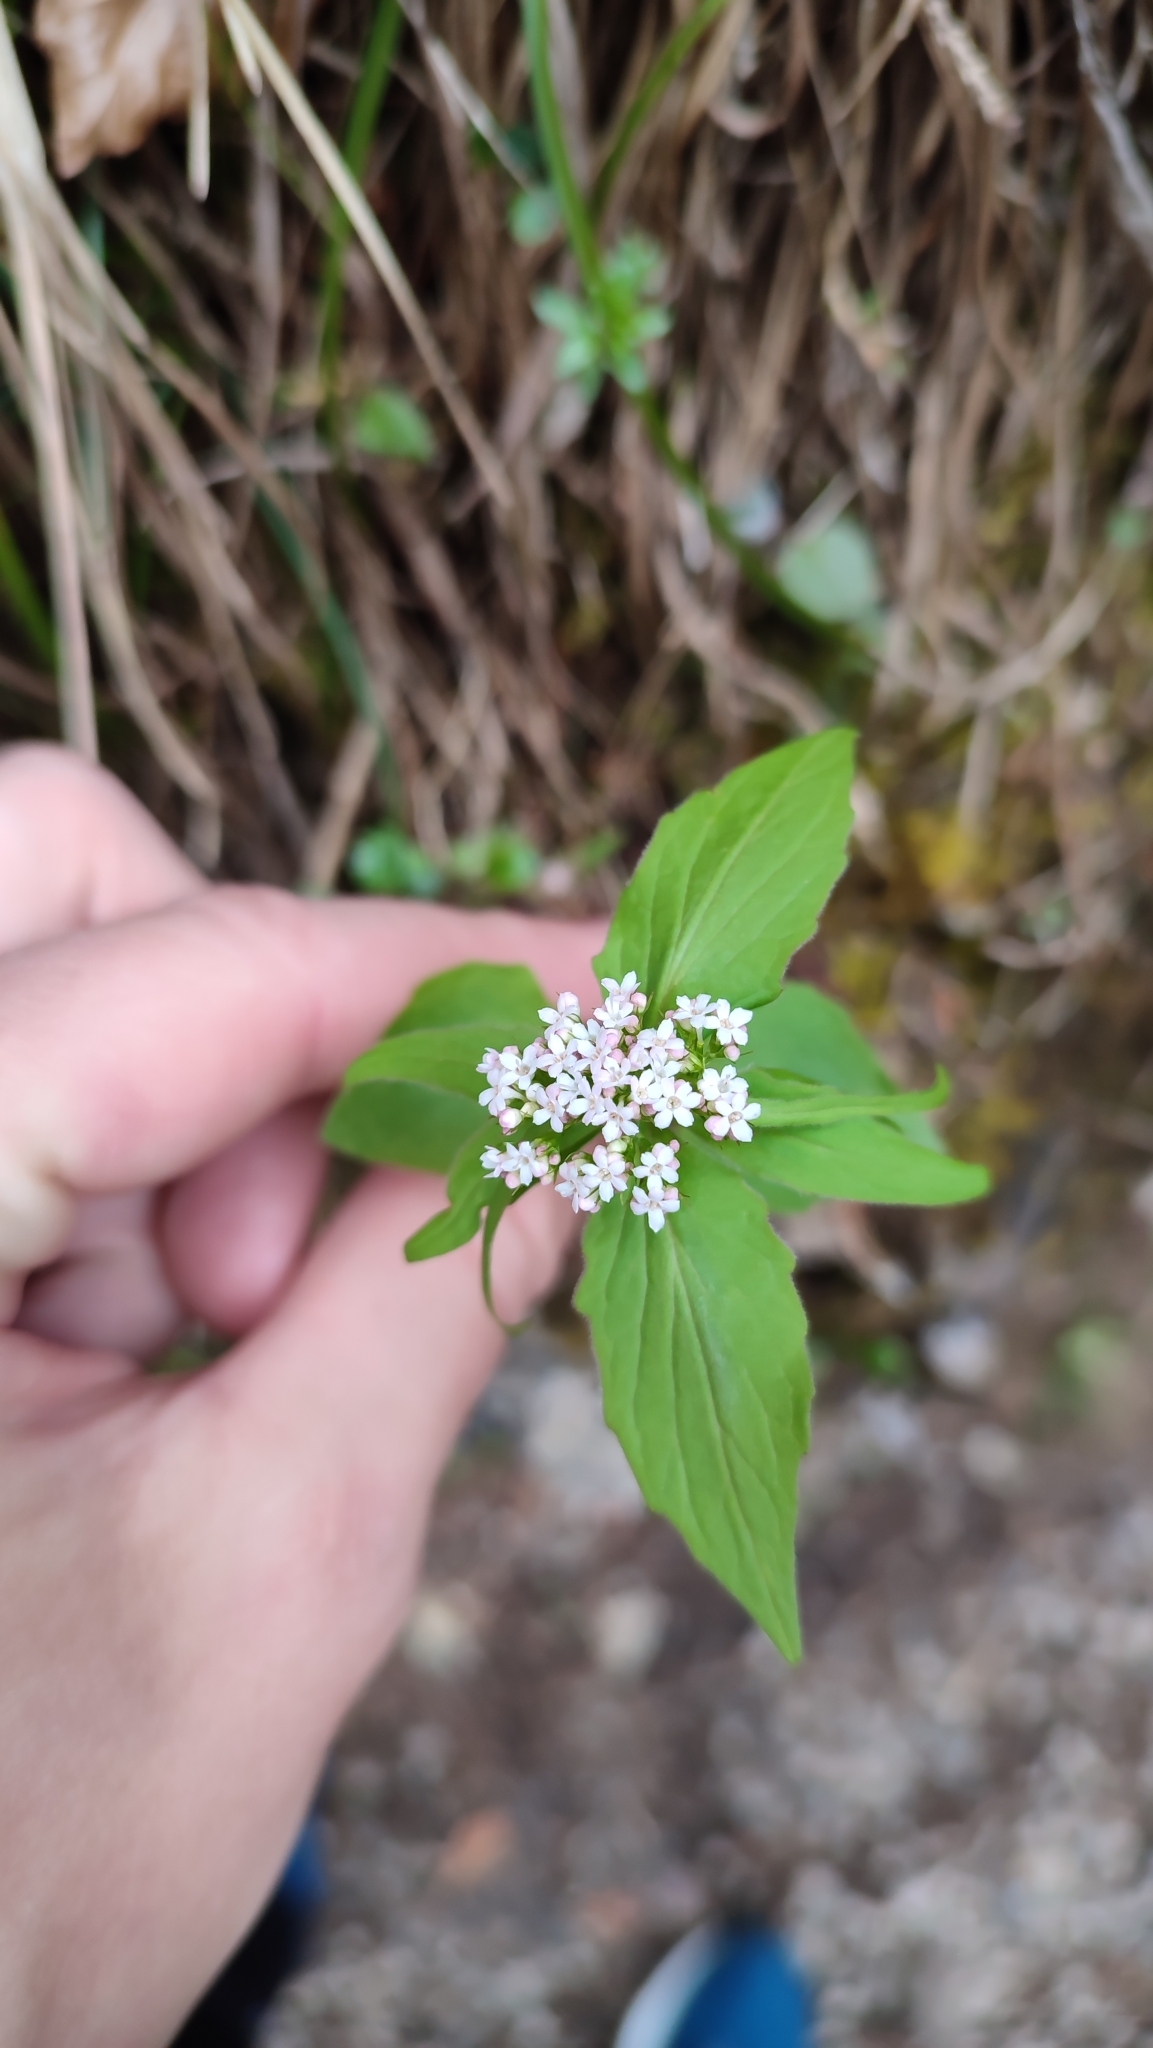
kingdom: Plantae
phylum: Tracheophyta
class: Magnoliopsida
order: Dipsacales
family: Caprifoliaceae
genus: Valeriana
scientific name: Valeriana tripteris
